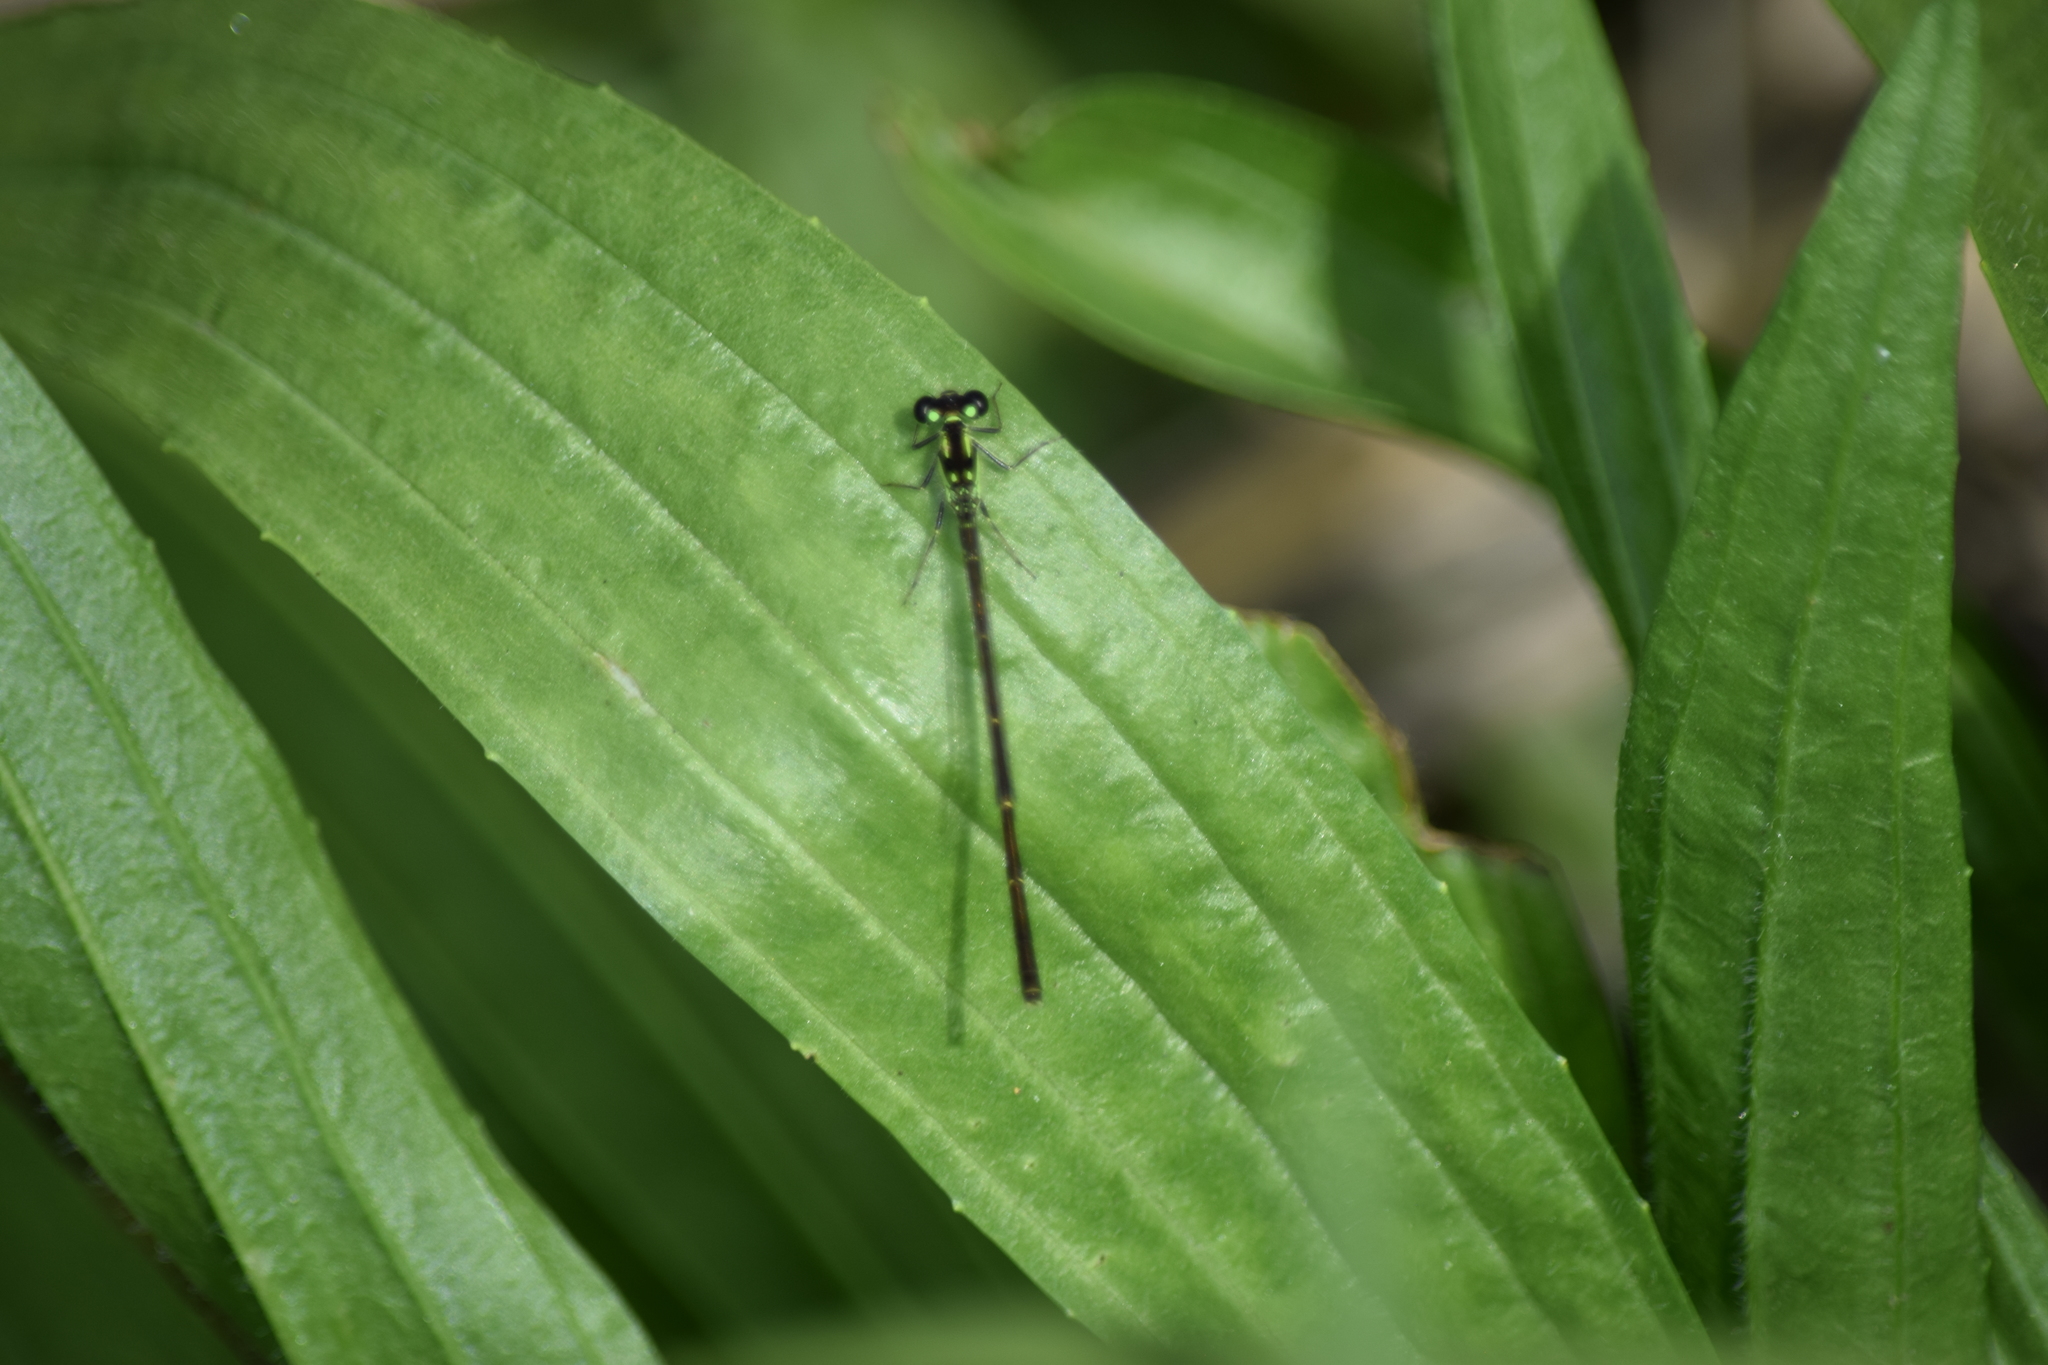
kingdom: Animalia
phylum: Arthropoda
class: Insecta
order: Odonata
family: Coenagrionidae
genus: Ischnura
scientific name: Ischnura posita
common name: Fragile forktail
